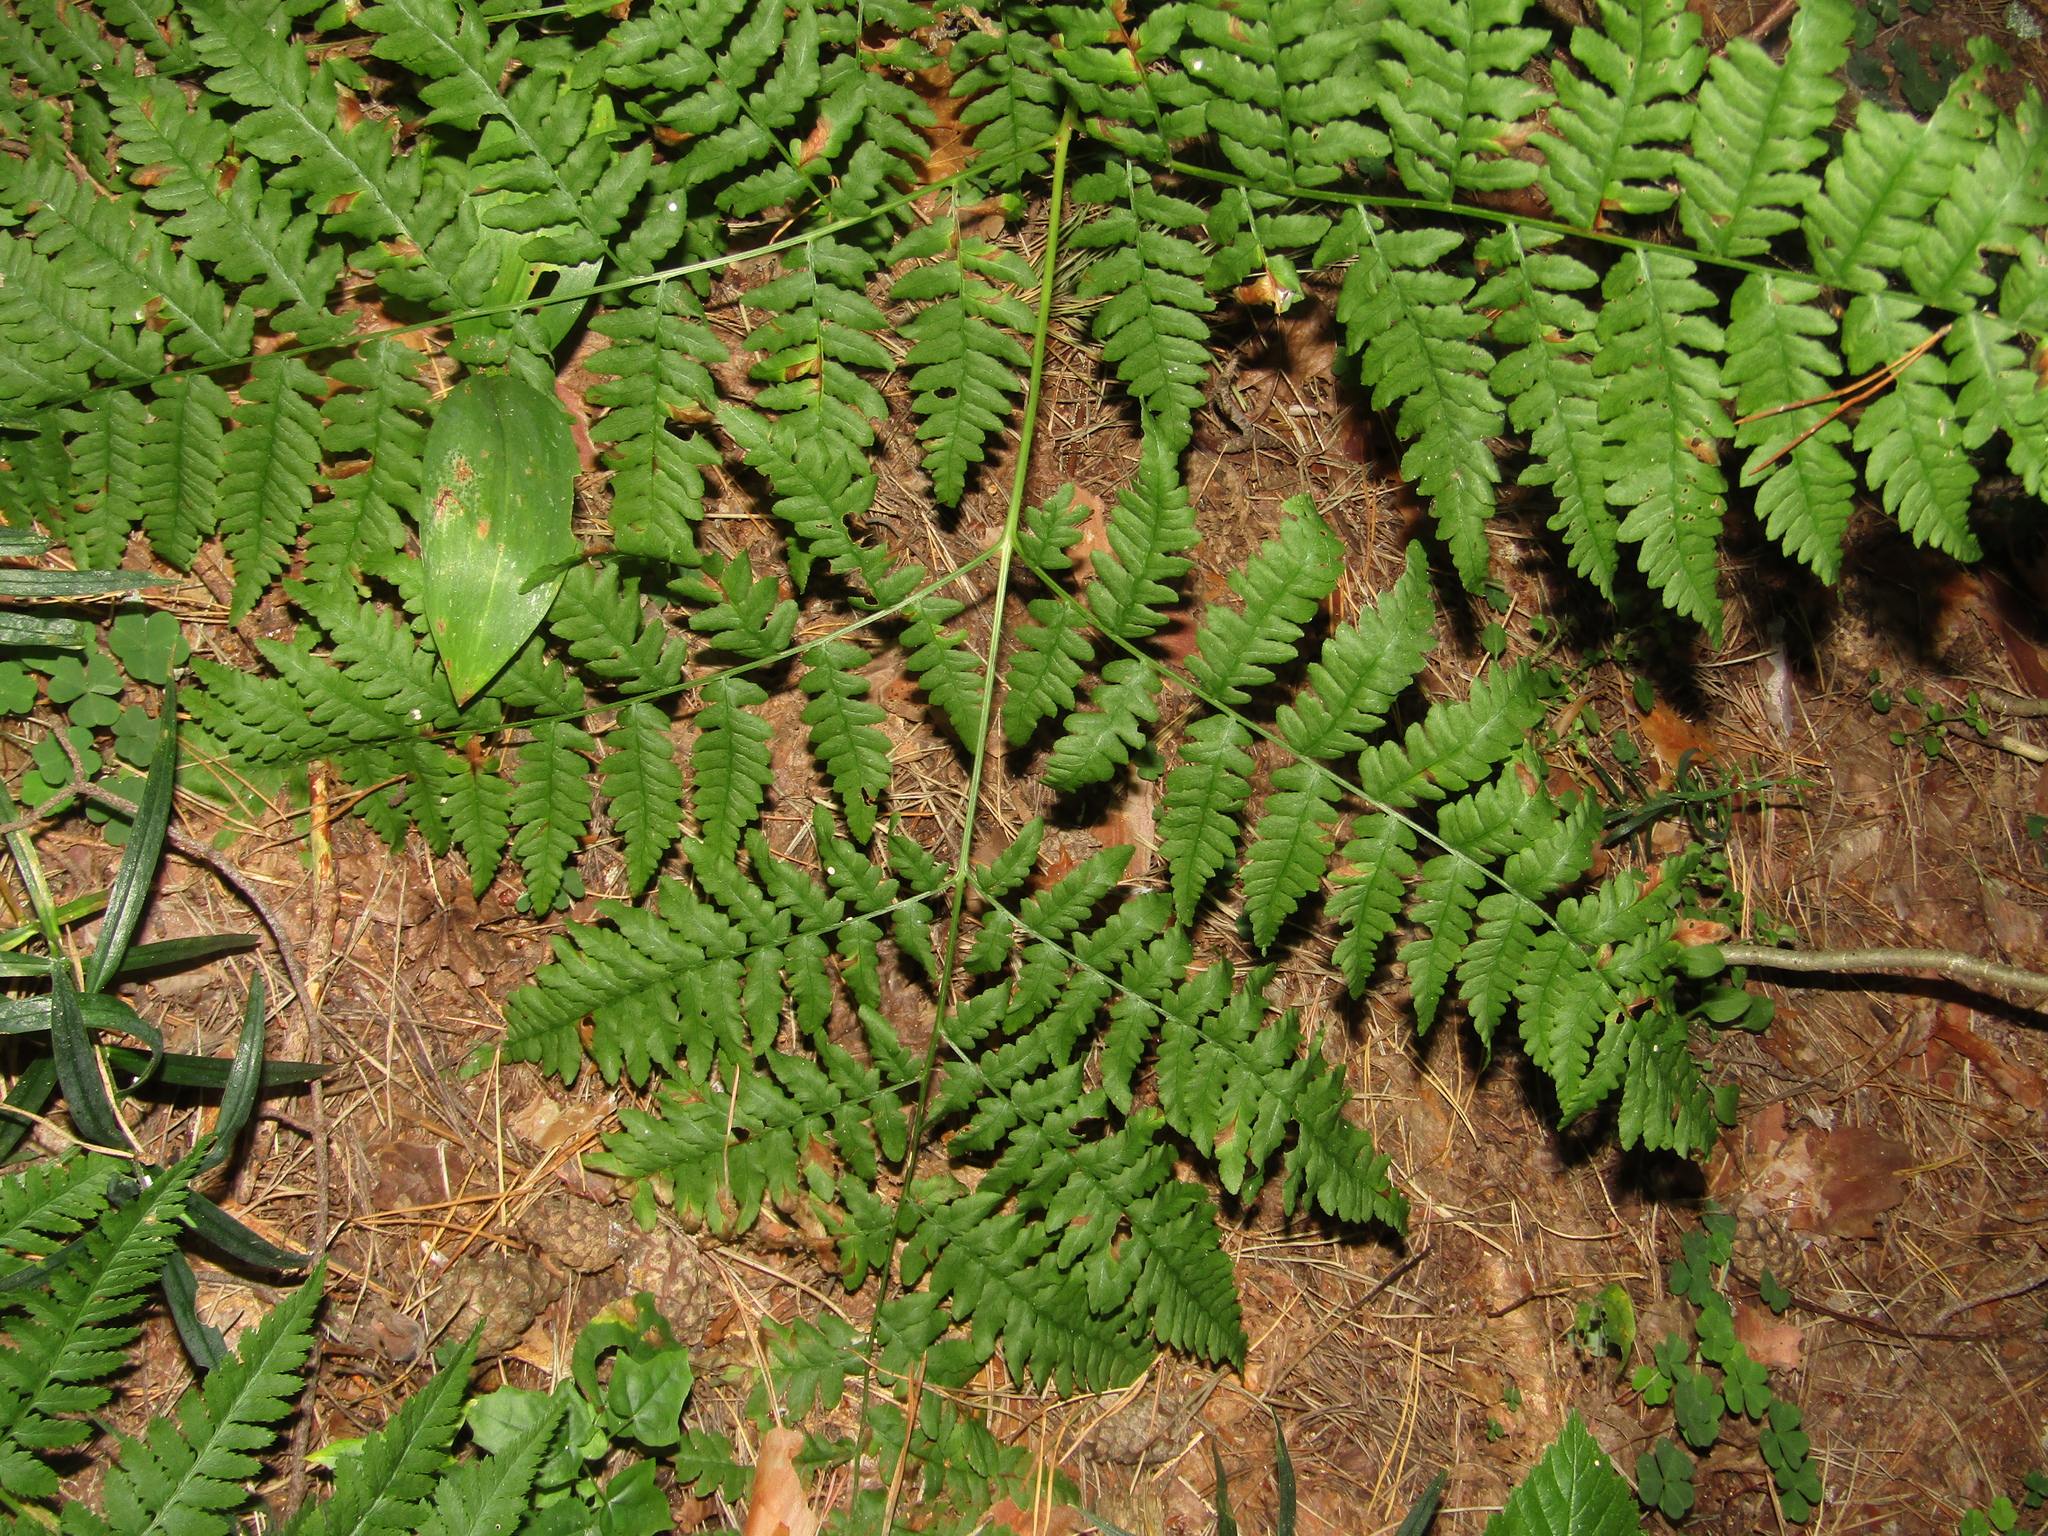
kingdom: Plantae
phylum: Tracheophyta
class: Polypodiopsida
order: Polypodiales
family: Dennstaedtiaceae
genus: Pteridium
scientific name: Pteridium aquilinum
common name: Bracken
